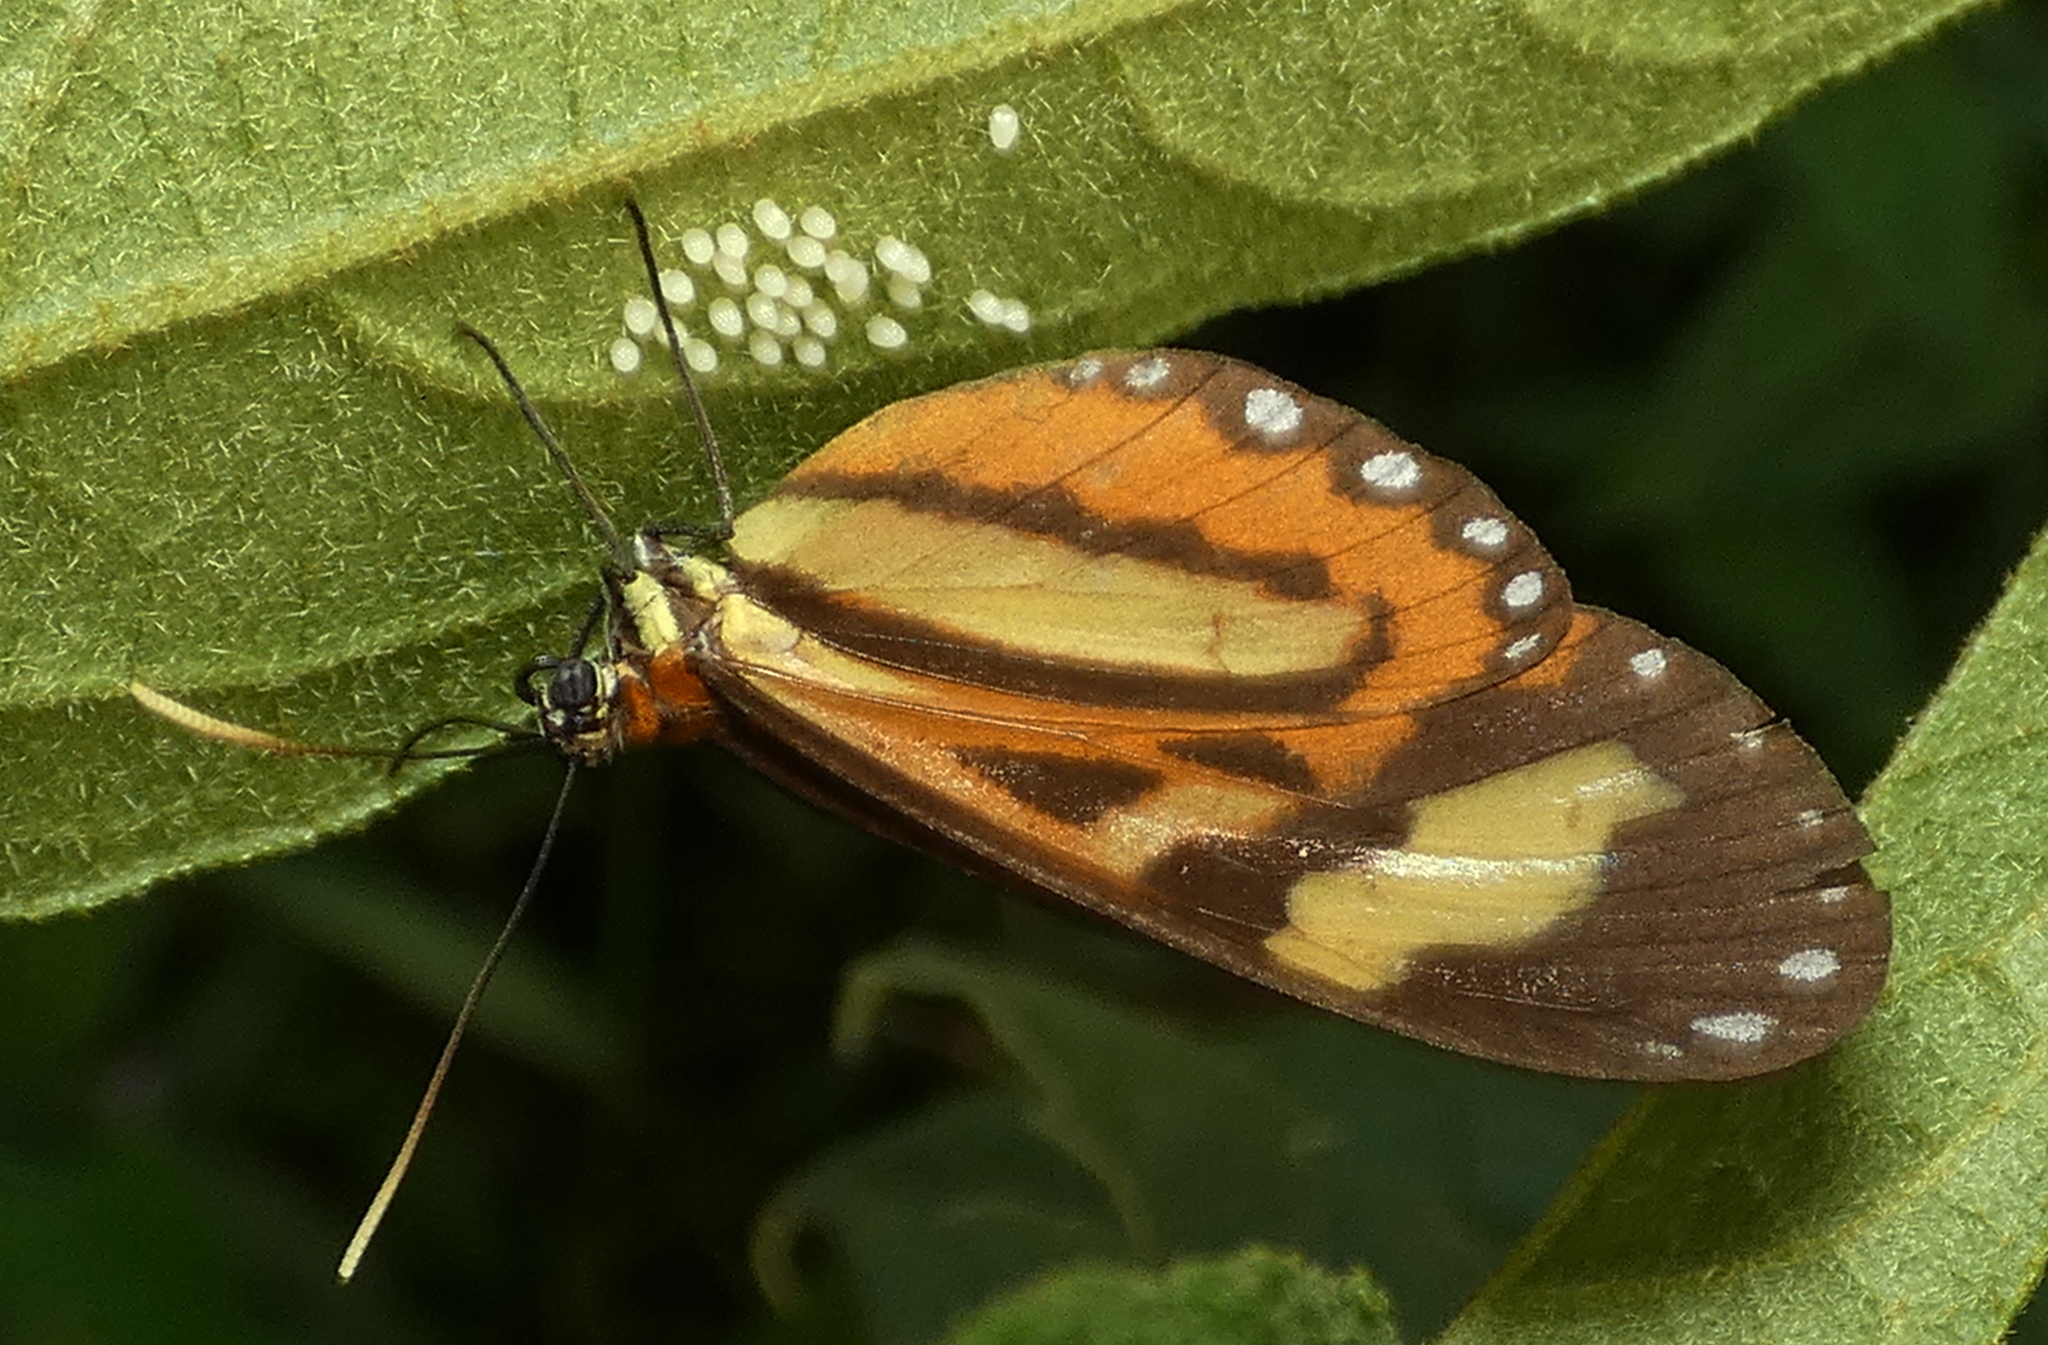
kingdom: Animalia
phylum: Arthropoda
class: Insecta
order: Lepidoptera
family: Nymphalidae
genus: Hypothyris
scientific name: Hypothyris euclea
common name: Euclea tigerwing
